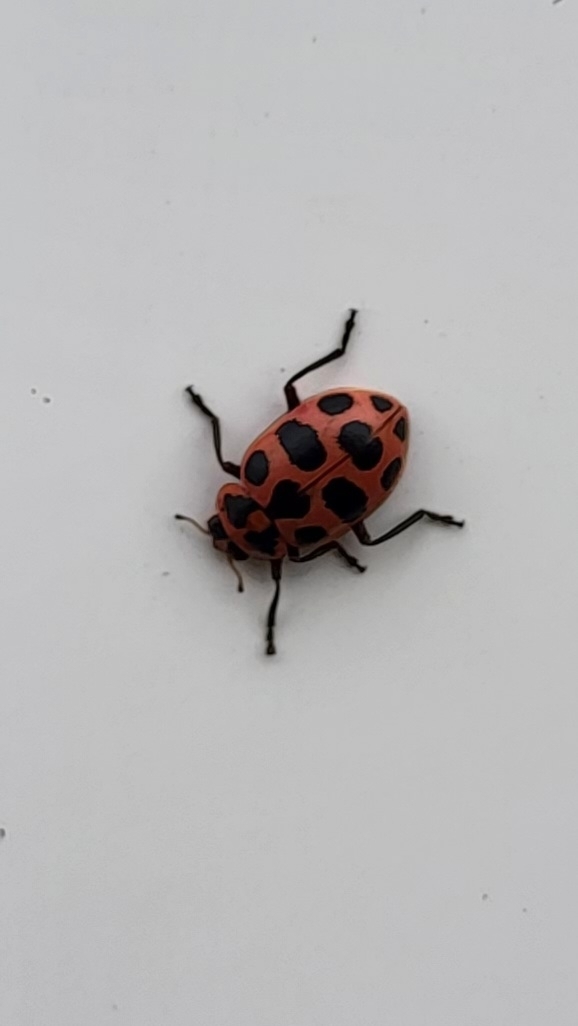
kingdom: Animalia
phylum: Arthropoda
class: Insecta
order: Coleoptera
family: Coccinellidae
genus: Coleomegilla
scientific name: Coleomegilla maculata
